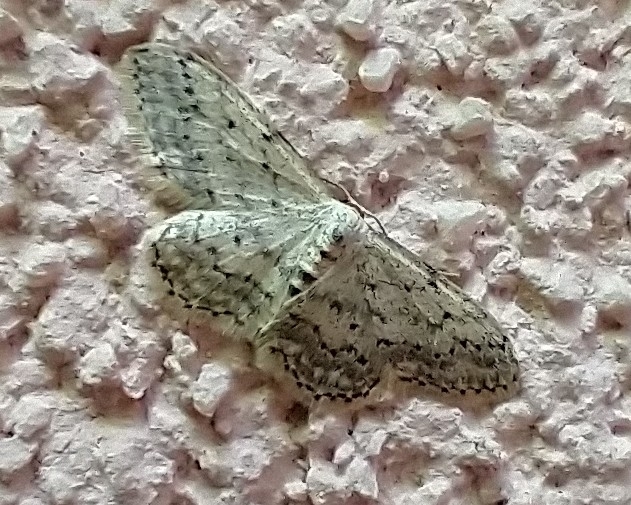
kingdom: Animalia
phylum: Arthropoda
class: Insecta
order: Lepidoptera
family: Geometridae
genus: Idaea
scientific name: Idaea seriata
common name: Small dusty wave
